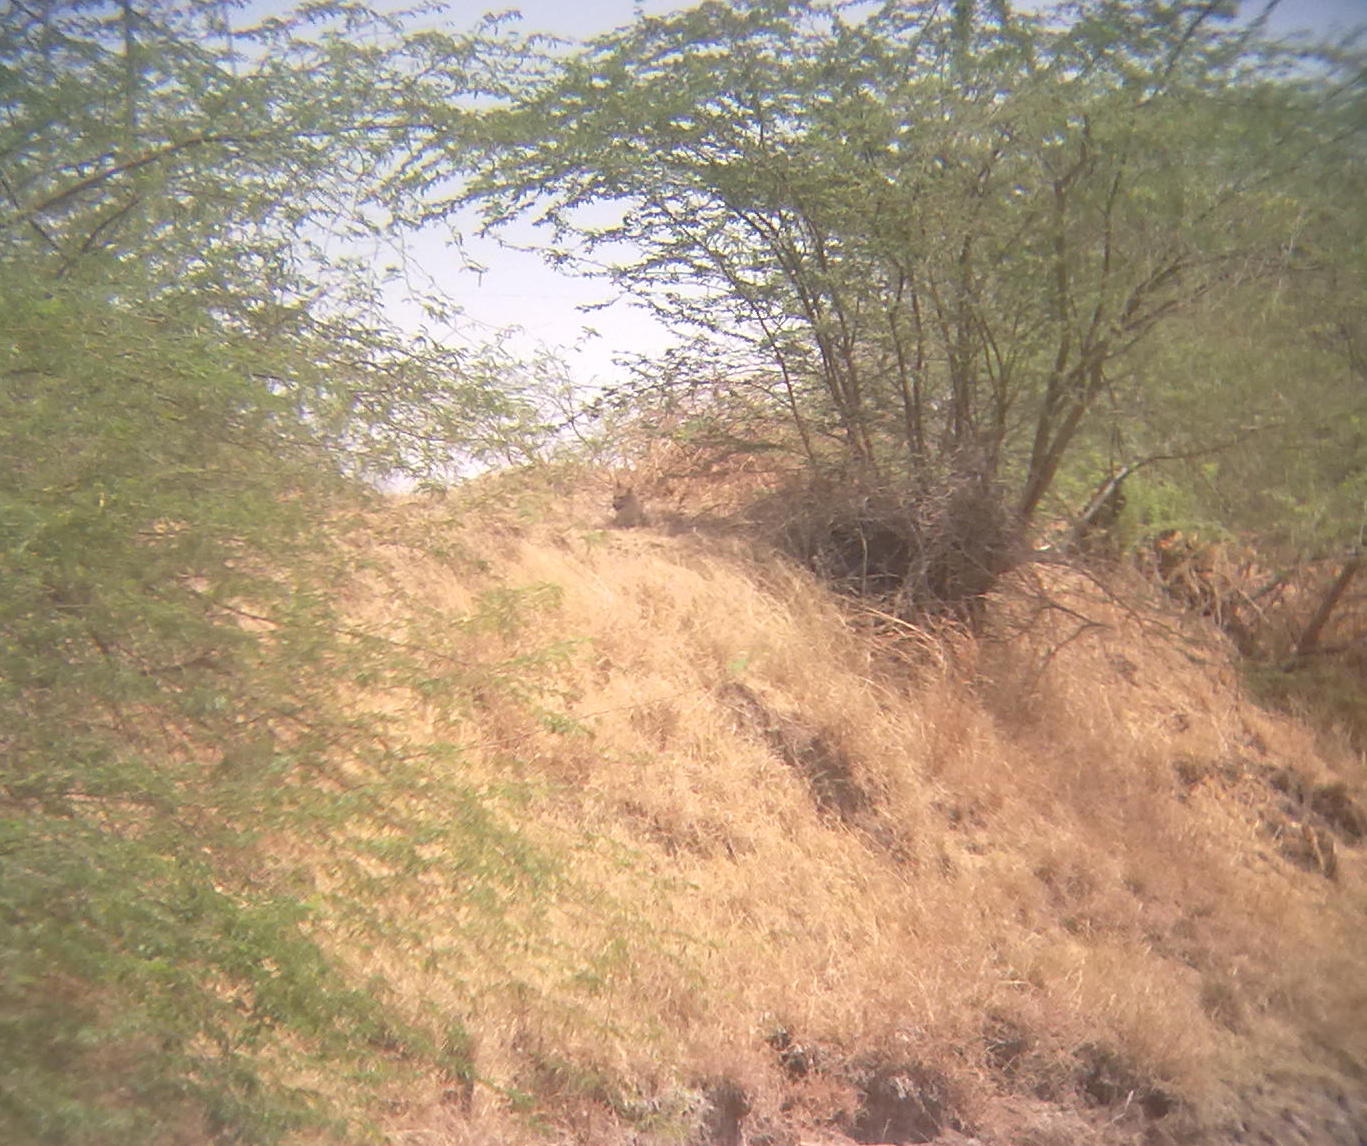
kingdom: Animalia
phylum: Chordata
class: Mammalia
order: Carnivora
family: Canidae
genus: Canis
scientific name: Canis aureus
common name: Golden jackal
